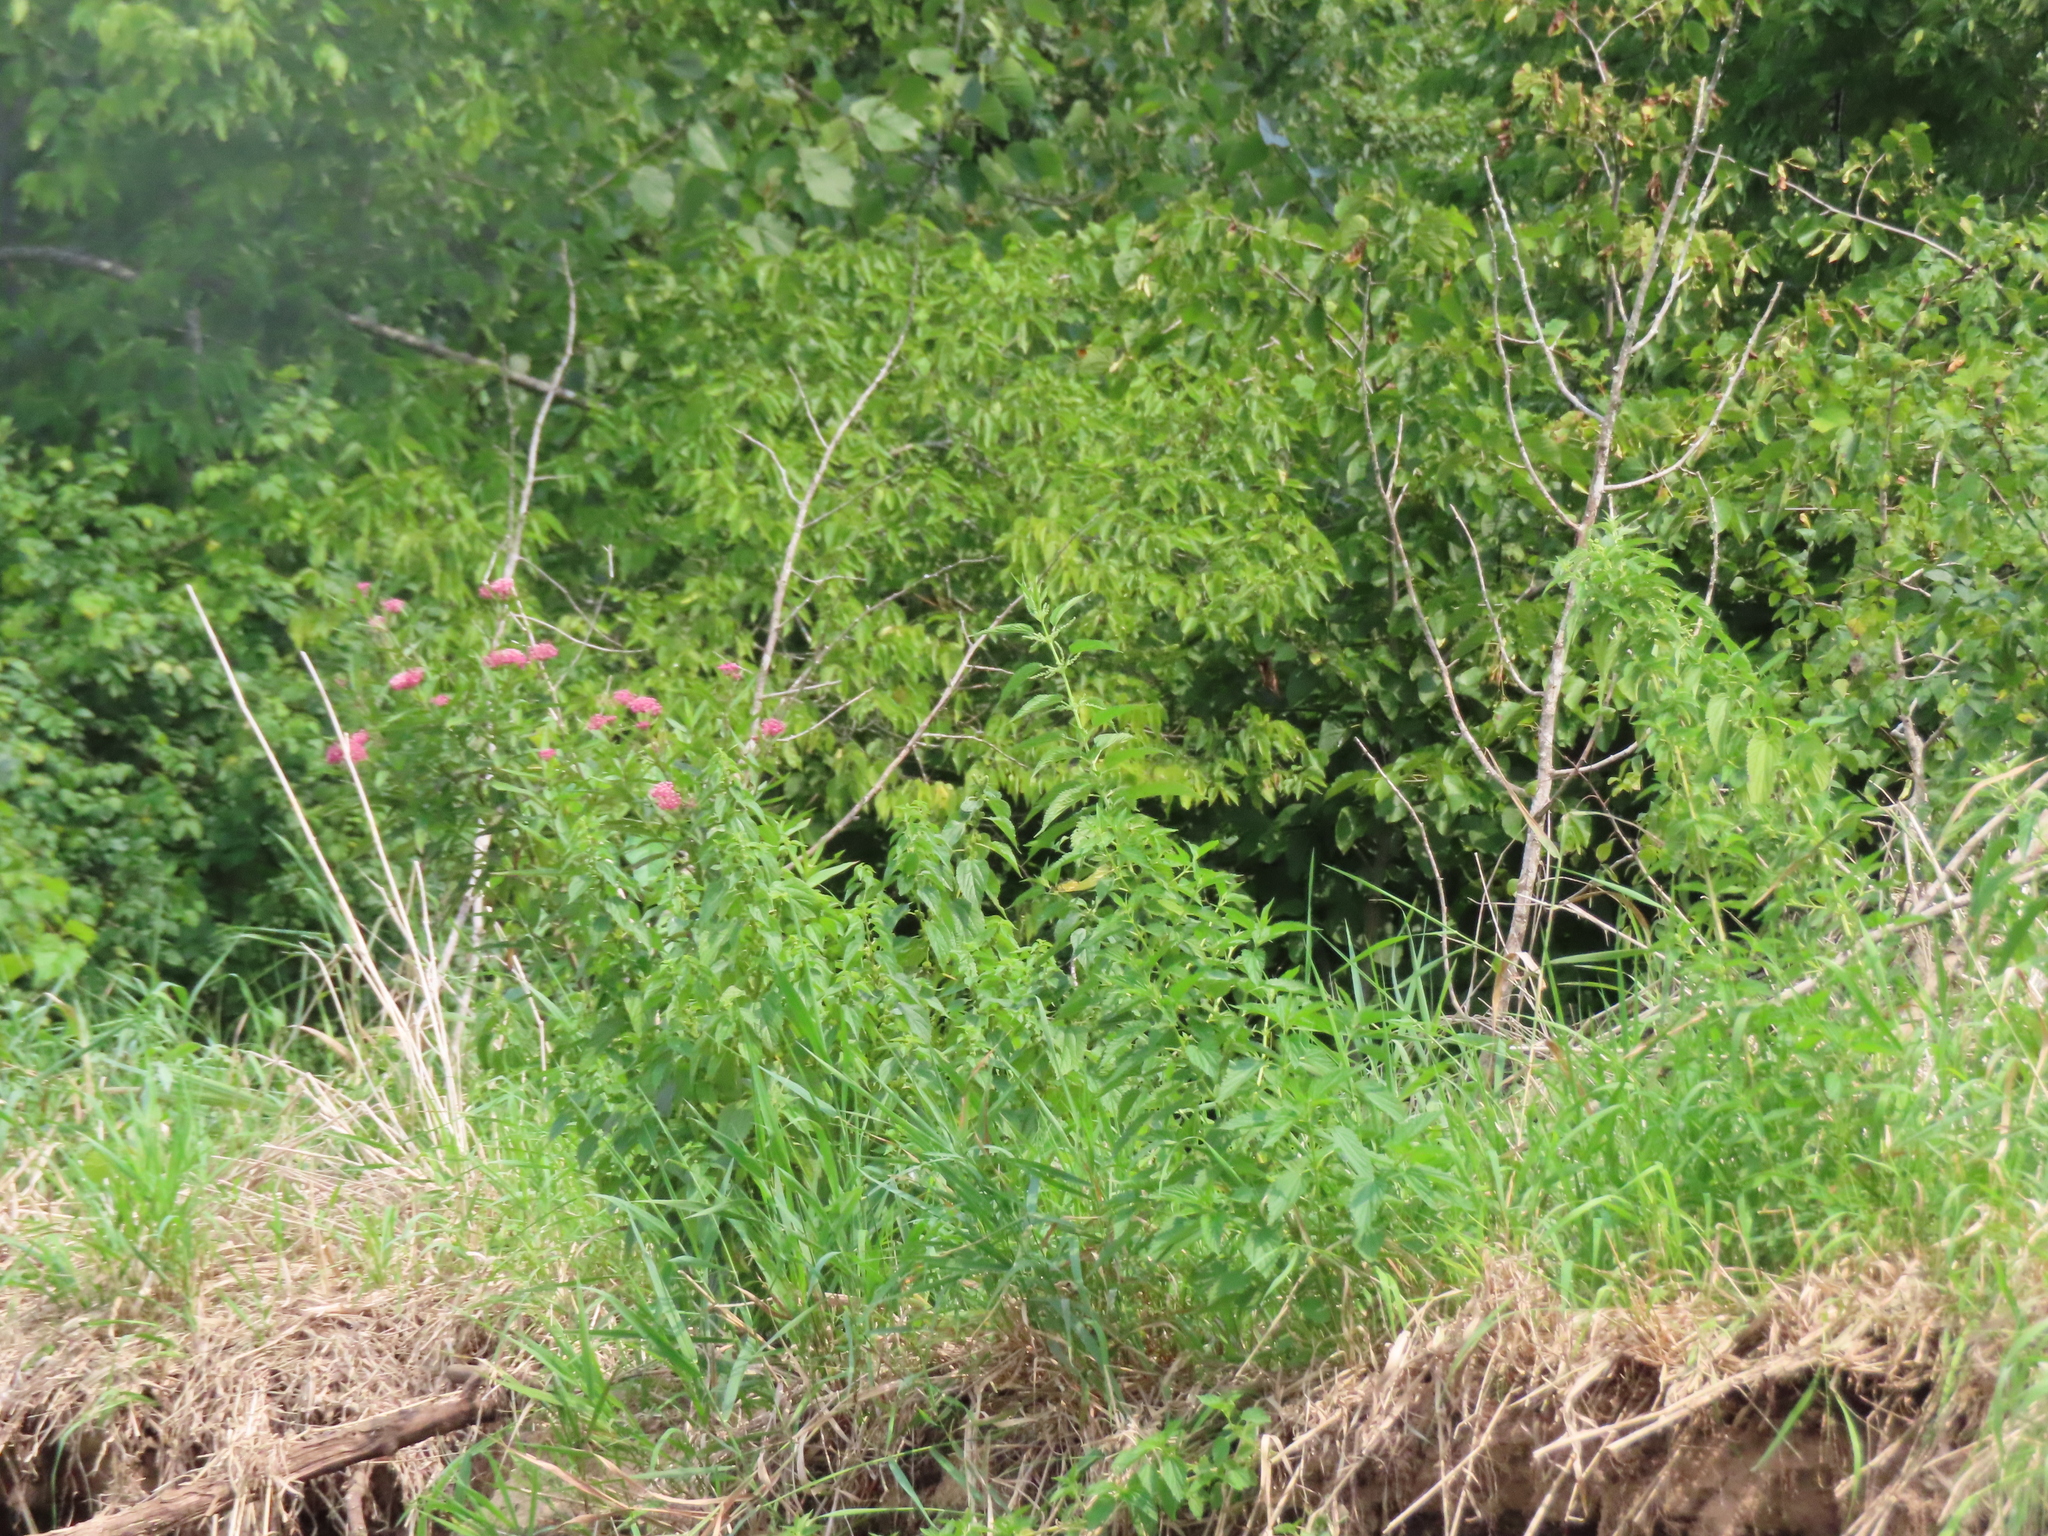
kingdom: Plantae
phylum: Tracheophyta
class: Magnoliopsida
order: Gentianales
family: Apocynaceae
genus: Asclepias
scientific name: Asclepias incarnata
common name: Swamp milkweed
